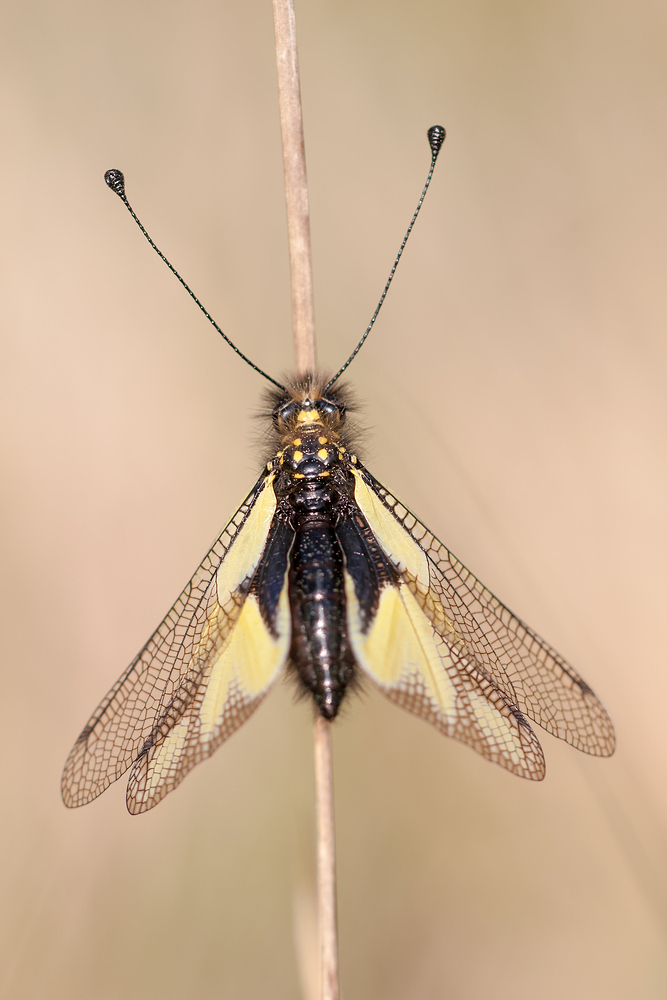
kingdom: Animalia
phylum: Arthropoda
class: Insecta
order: Neuroptera
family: Ascalaphidae
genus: Libelloides
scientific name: Libelloides coccajus
